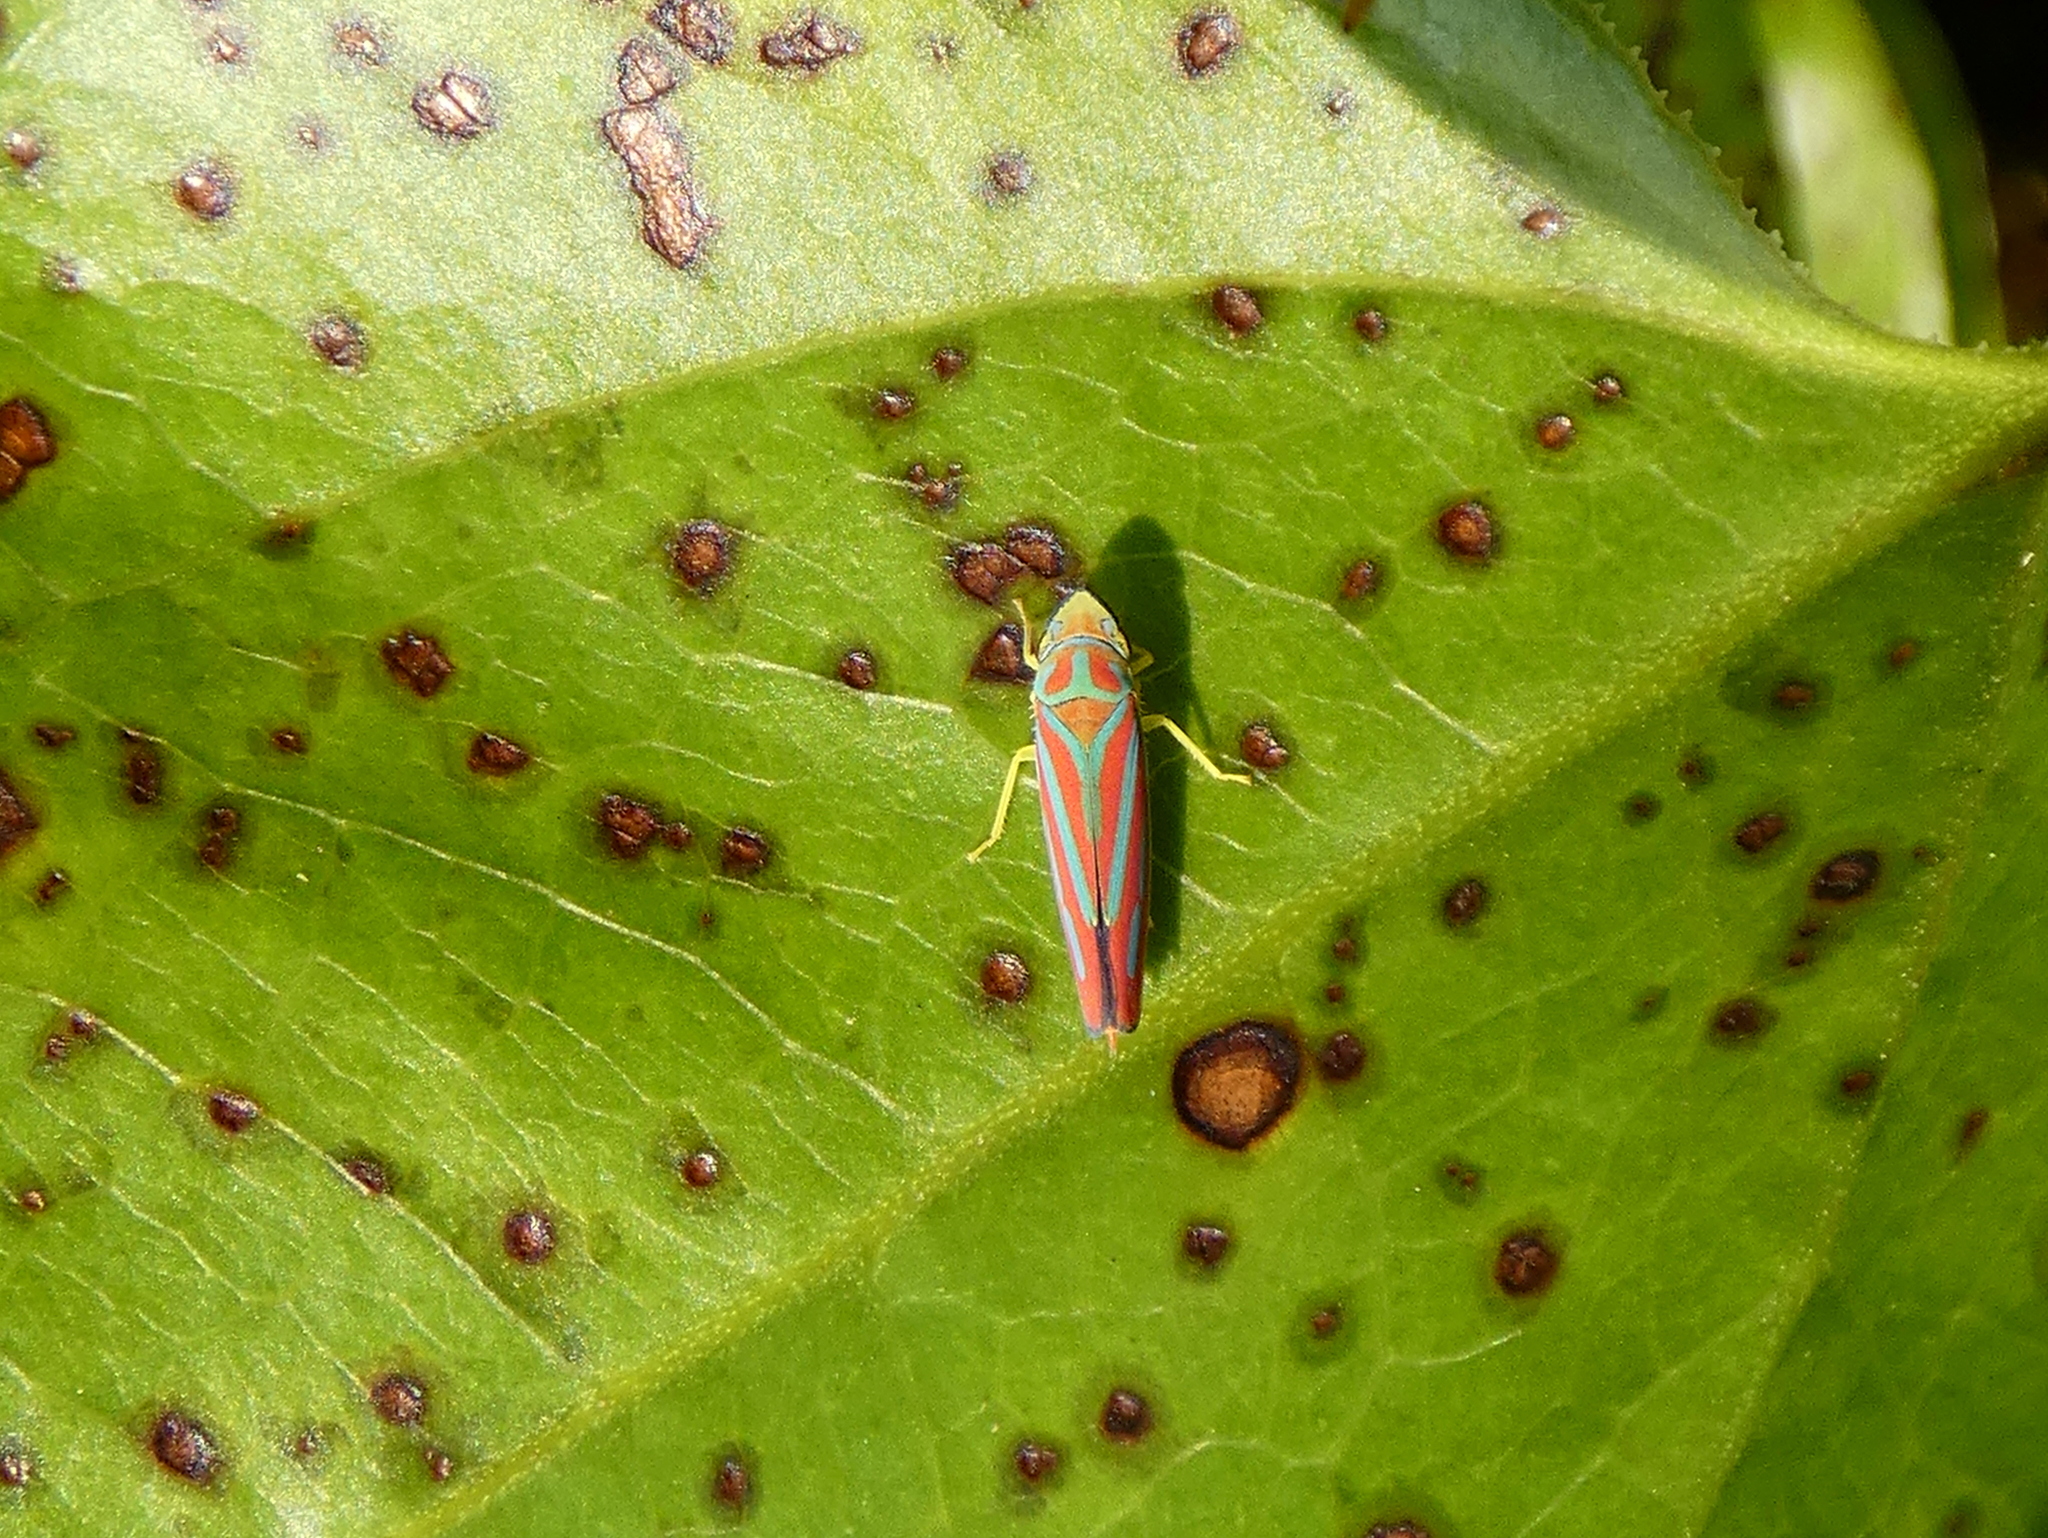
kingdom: Animalia
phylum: Arthropoda
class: Insecta
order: Hemiptera
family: Cicadellidae
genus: Graphocephala
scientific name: Graphocephala coccinea
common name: Candy-striped leafhopper
